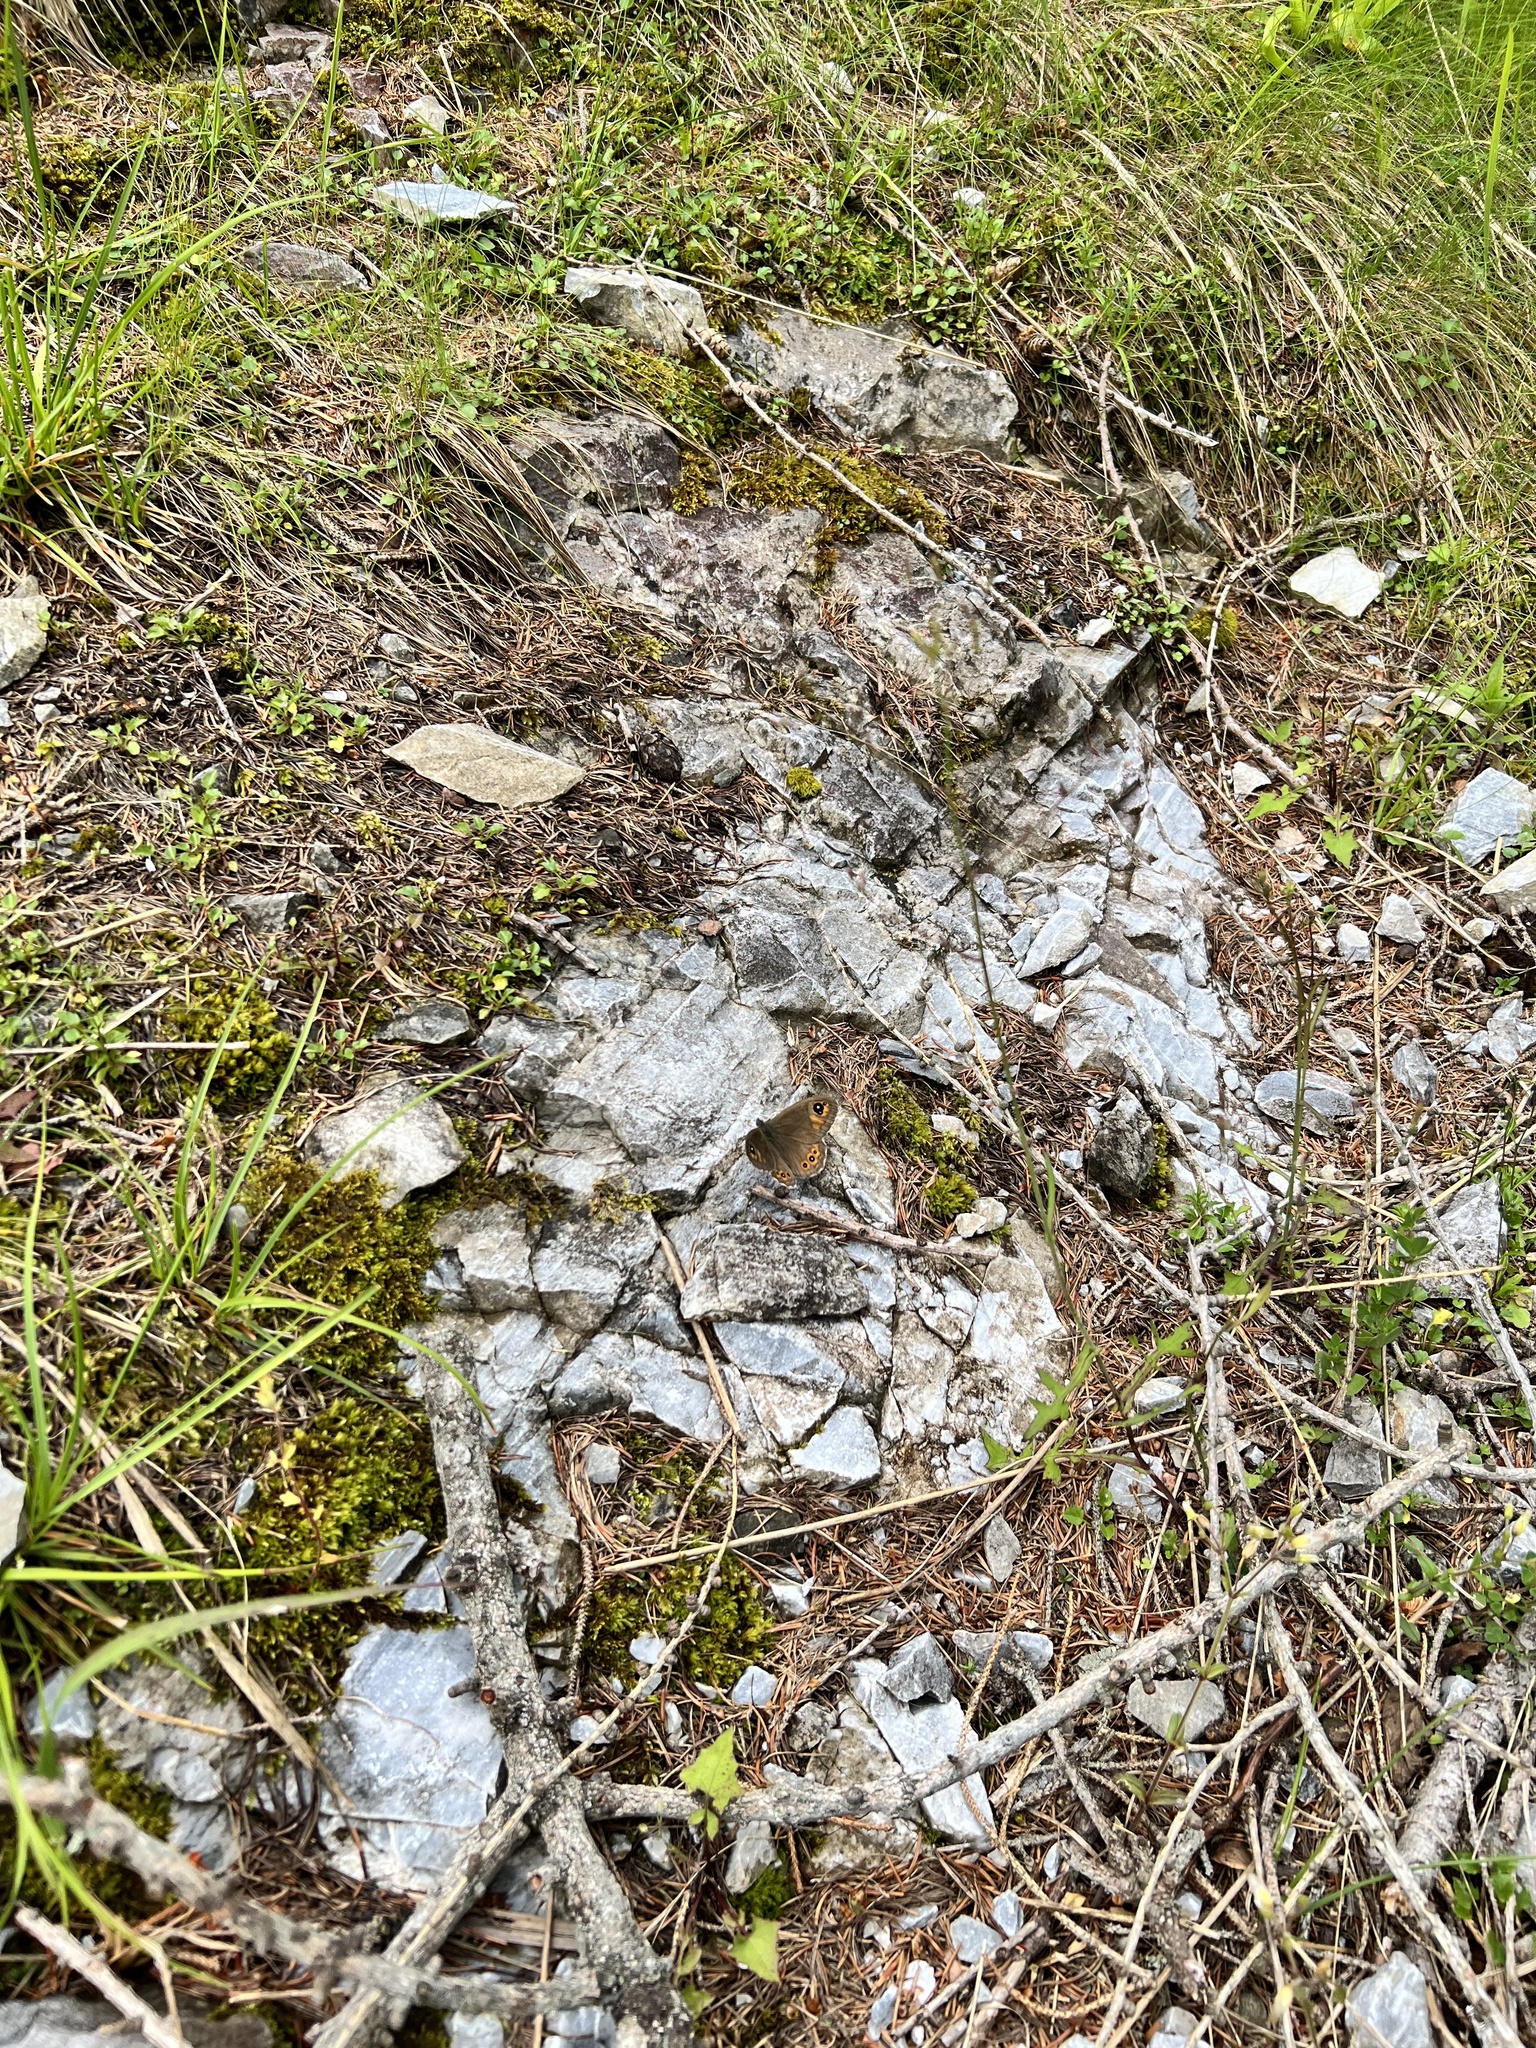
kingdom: Animalia
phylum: Arthropoda
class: Insecta
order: Lepidoptera
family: Nymphalidae
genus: Pararge
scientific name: Pararge Lasiommata maera
